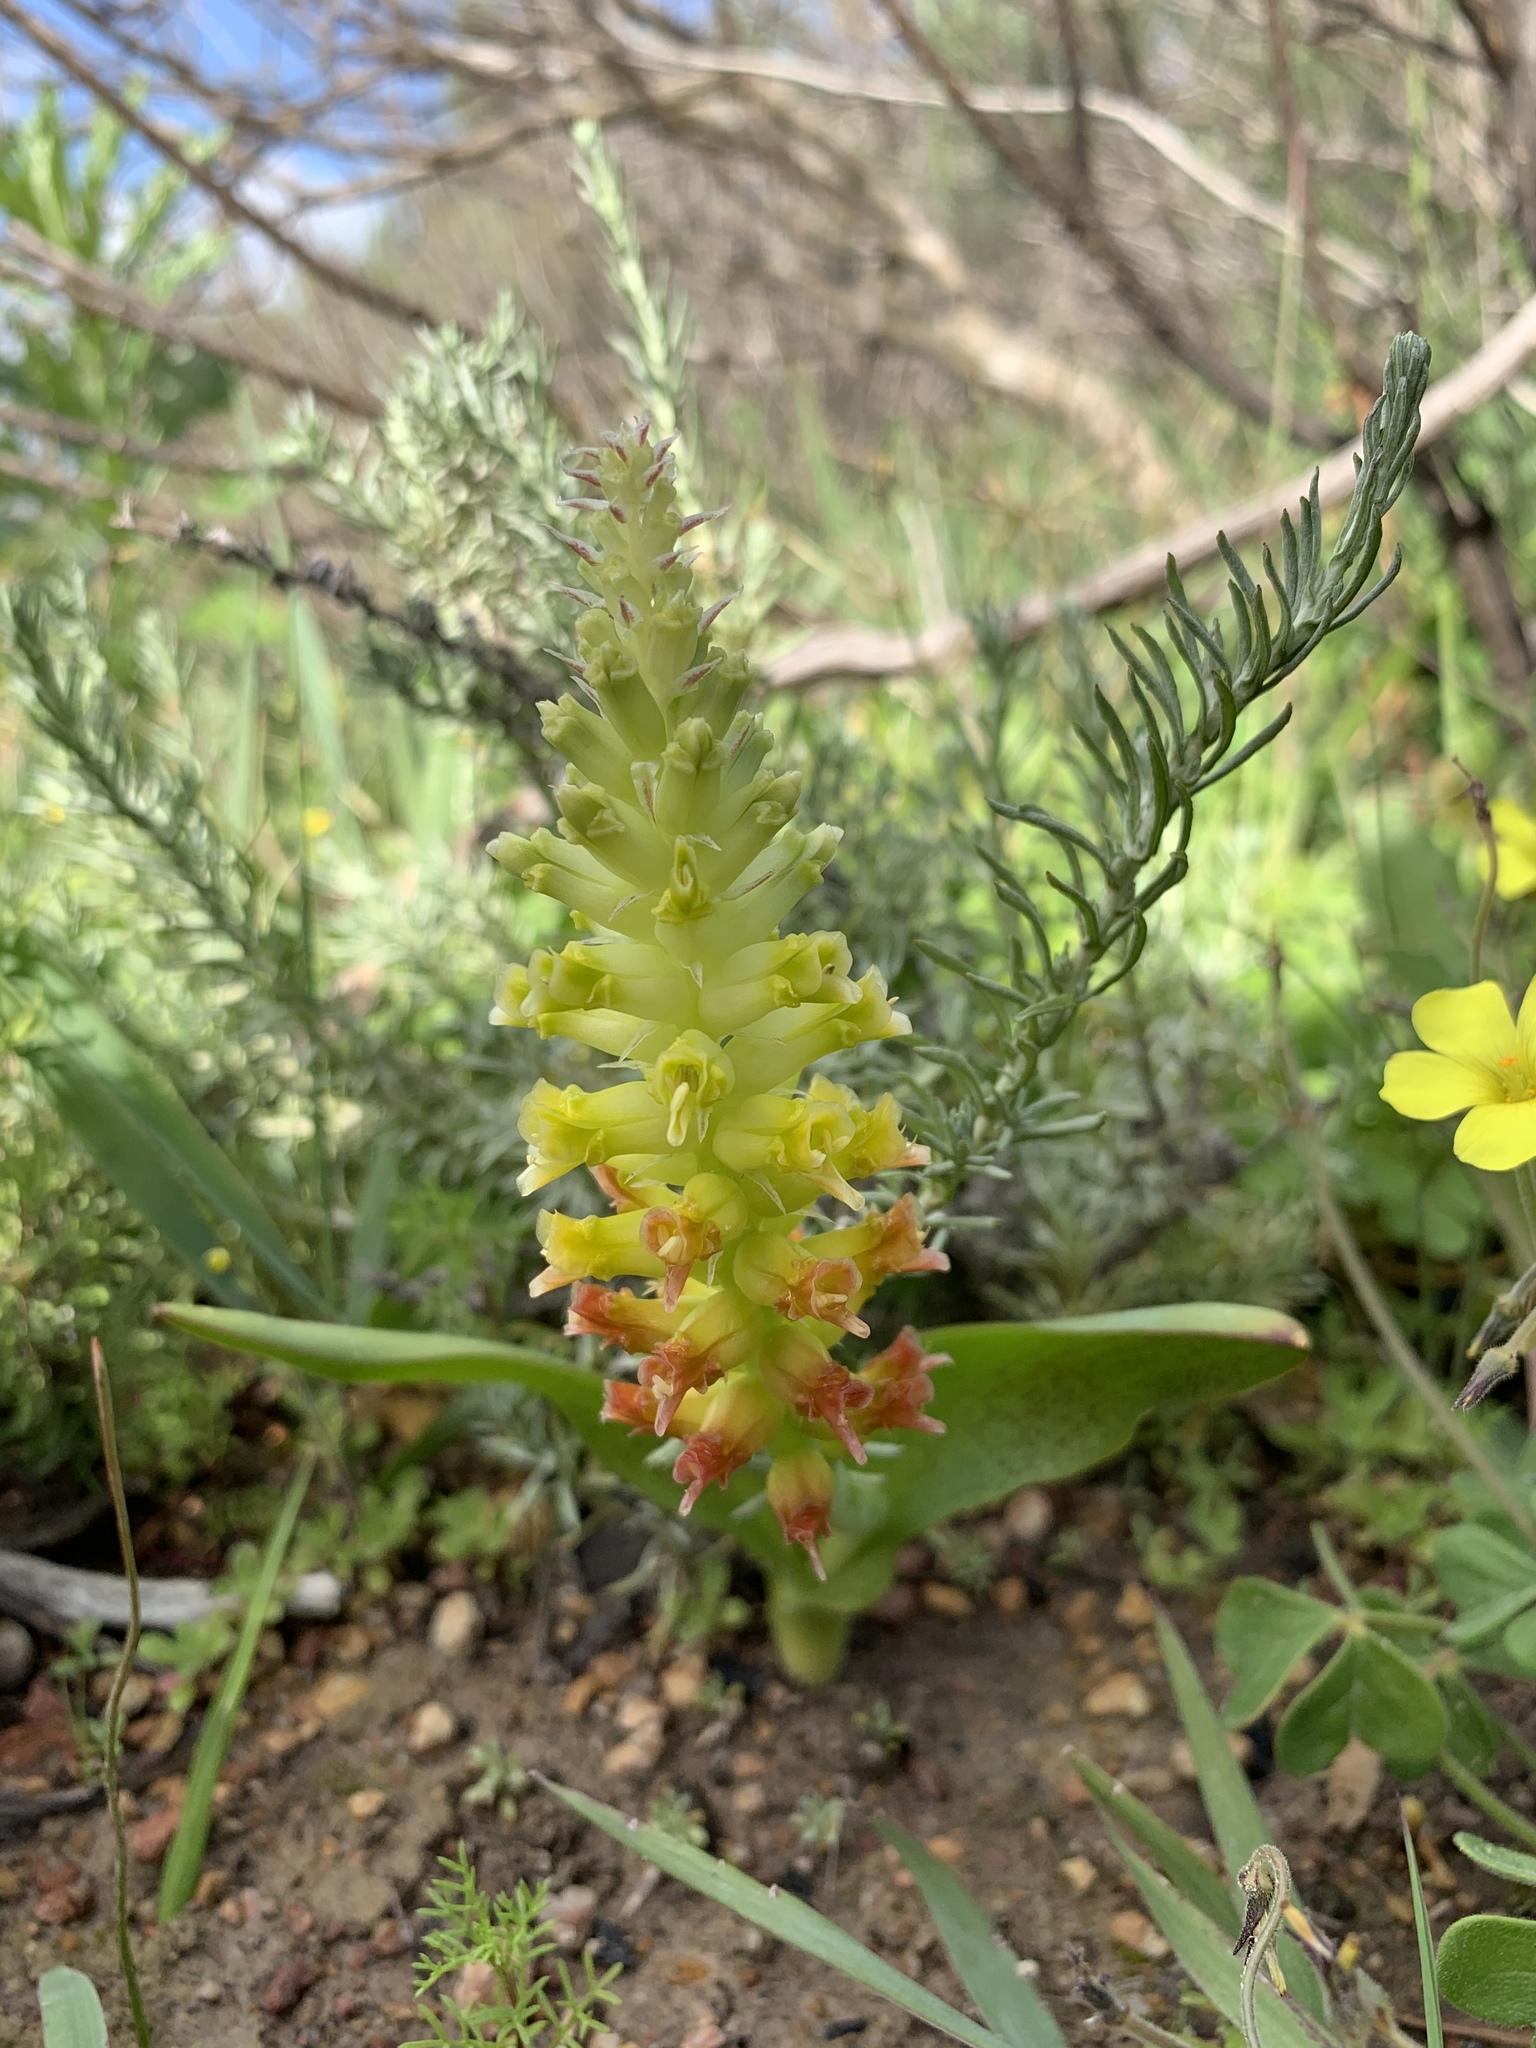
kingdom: Plantae
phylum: Tracheophyta
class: Liliopsida
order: Asparagales
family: Asparagaceae
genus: Lachenalia
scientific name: Lachenalia orchioides
